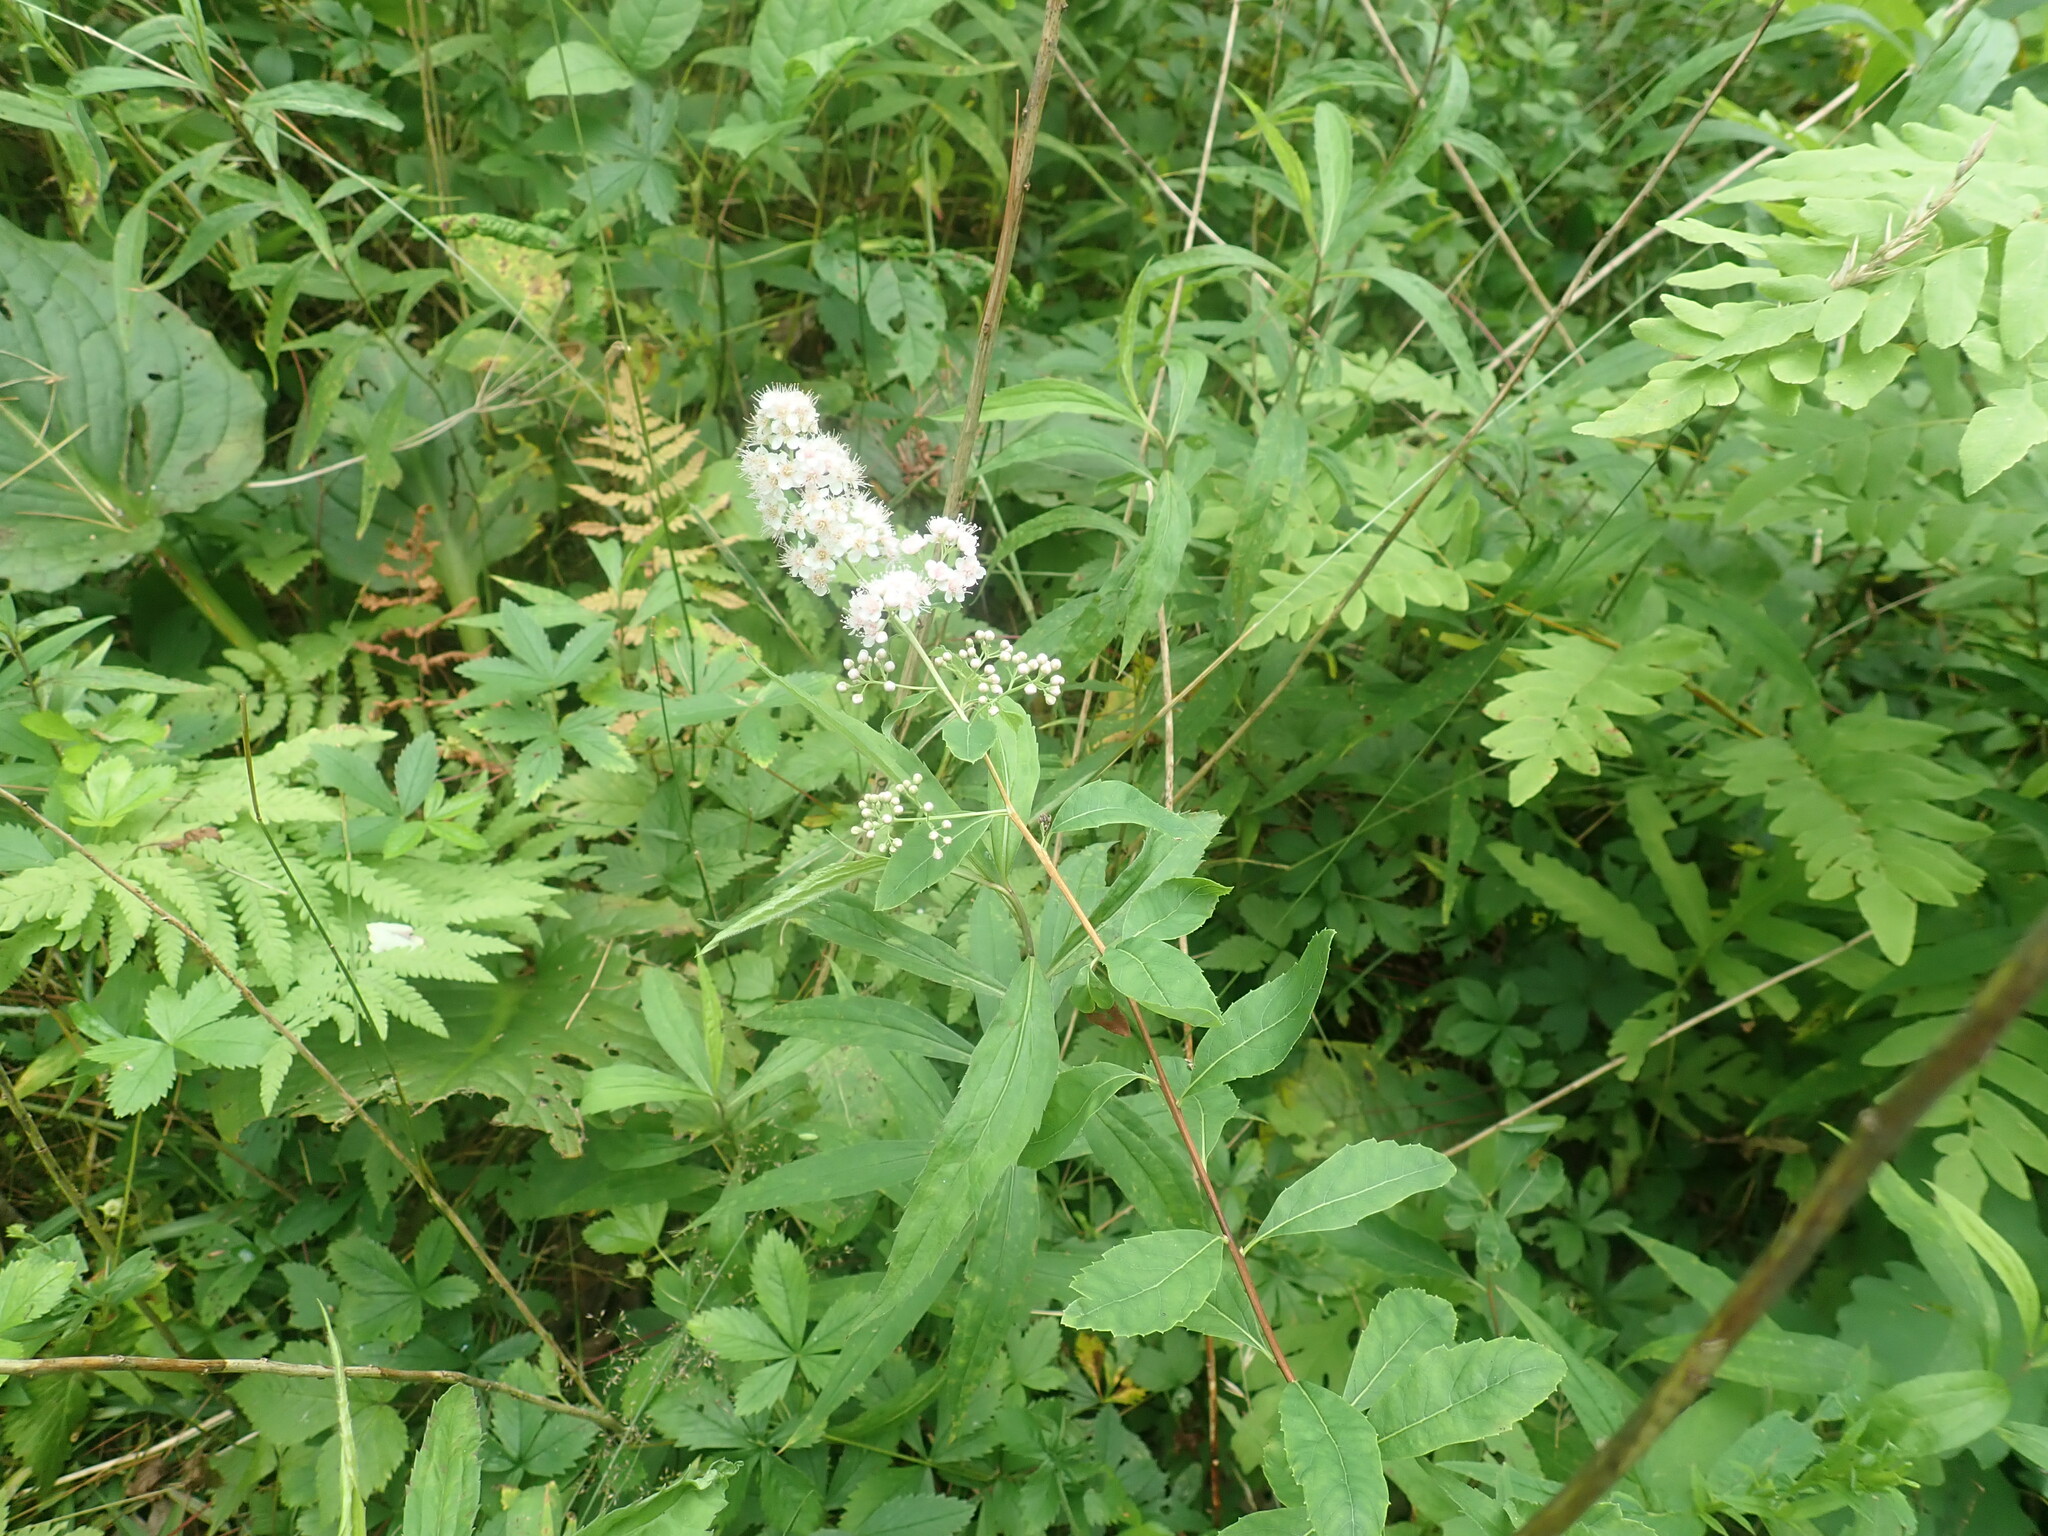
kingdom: Plantae
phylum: Tracheophyta
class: Magnoliopsida
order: Rosales
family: Rosaceae
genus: Spiraea
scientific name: Spiraea alba
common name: Pale bridewort
